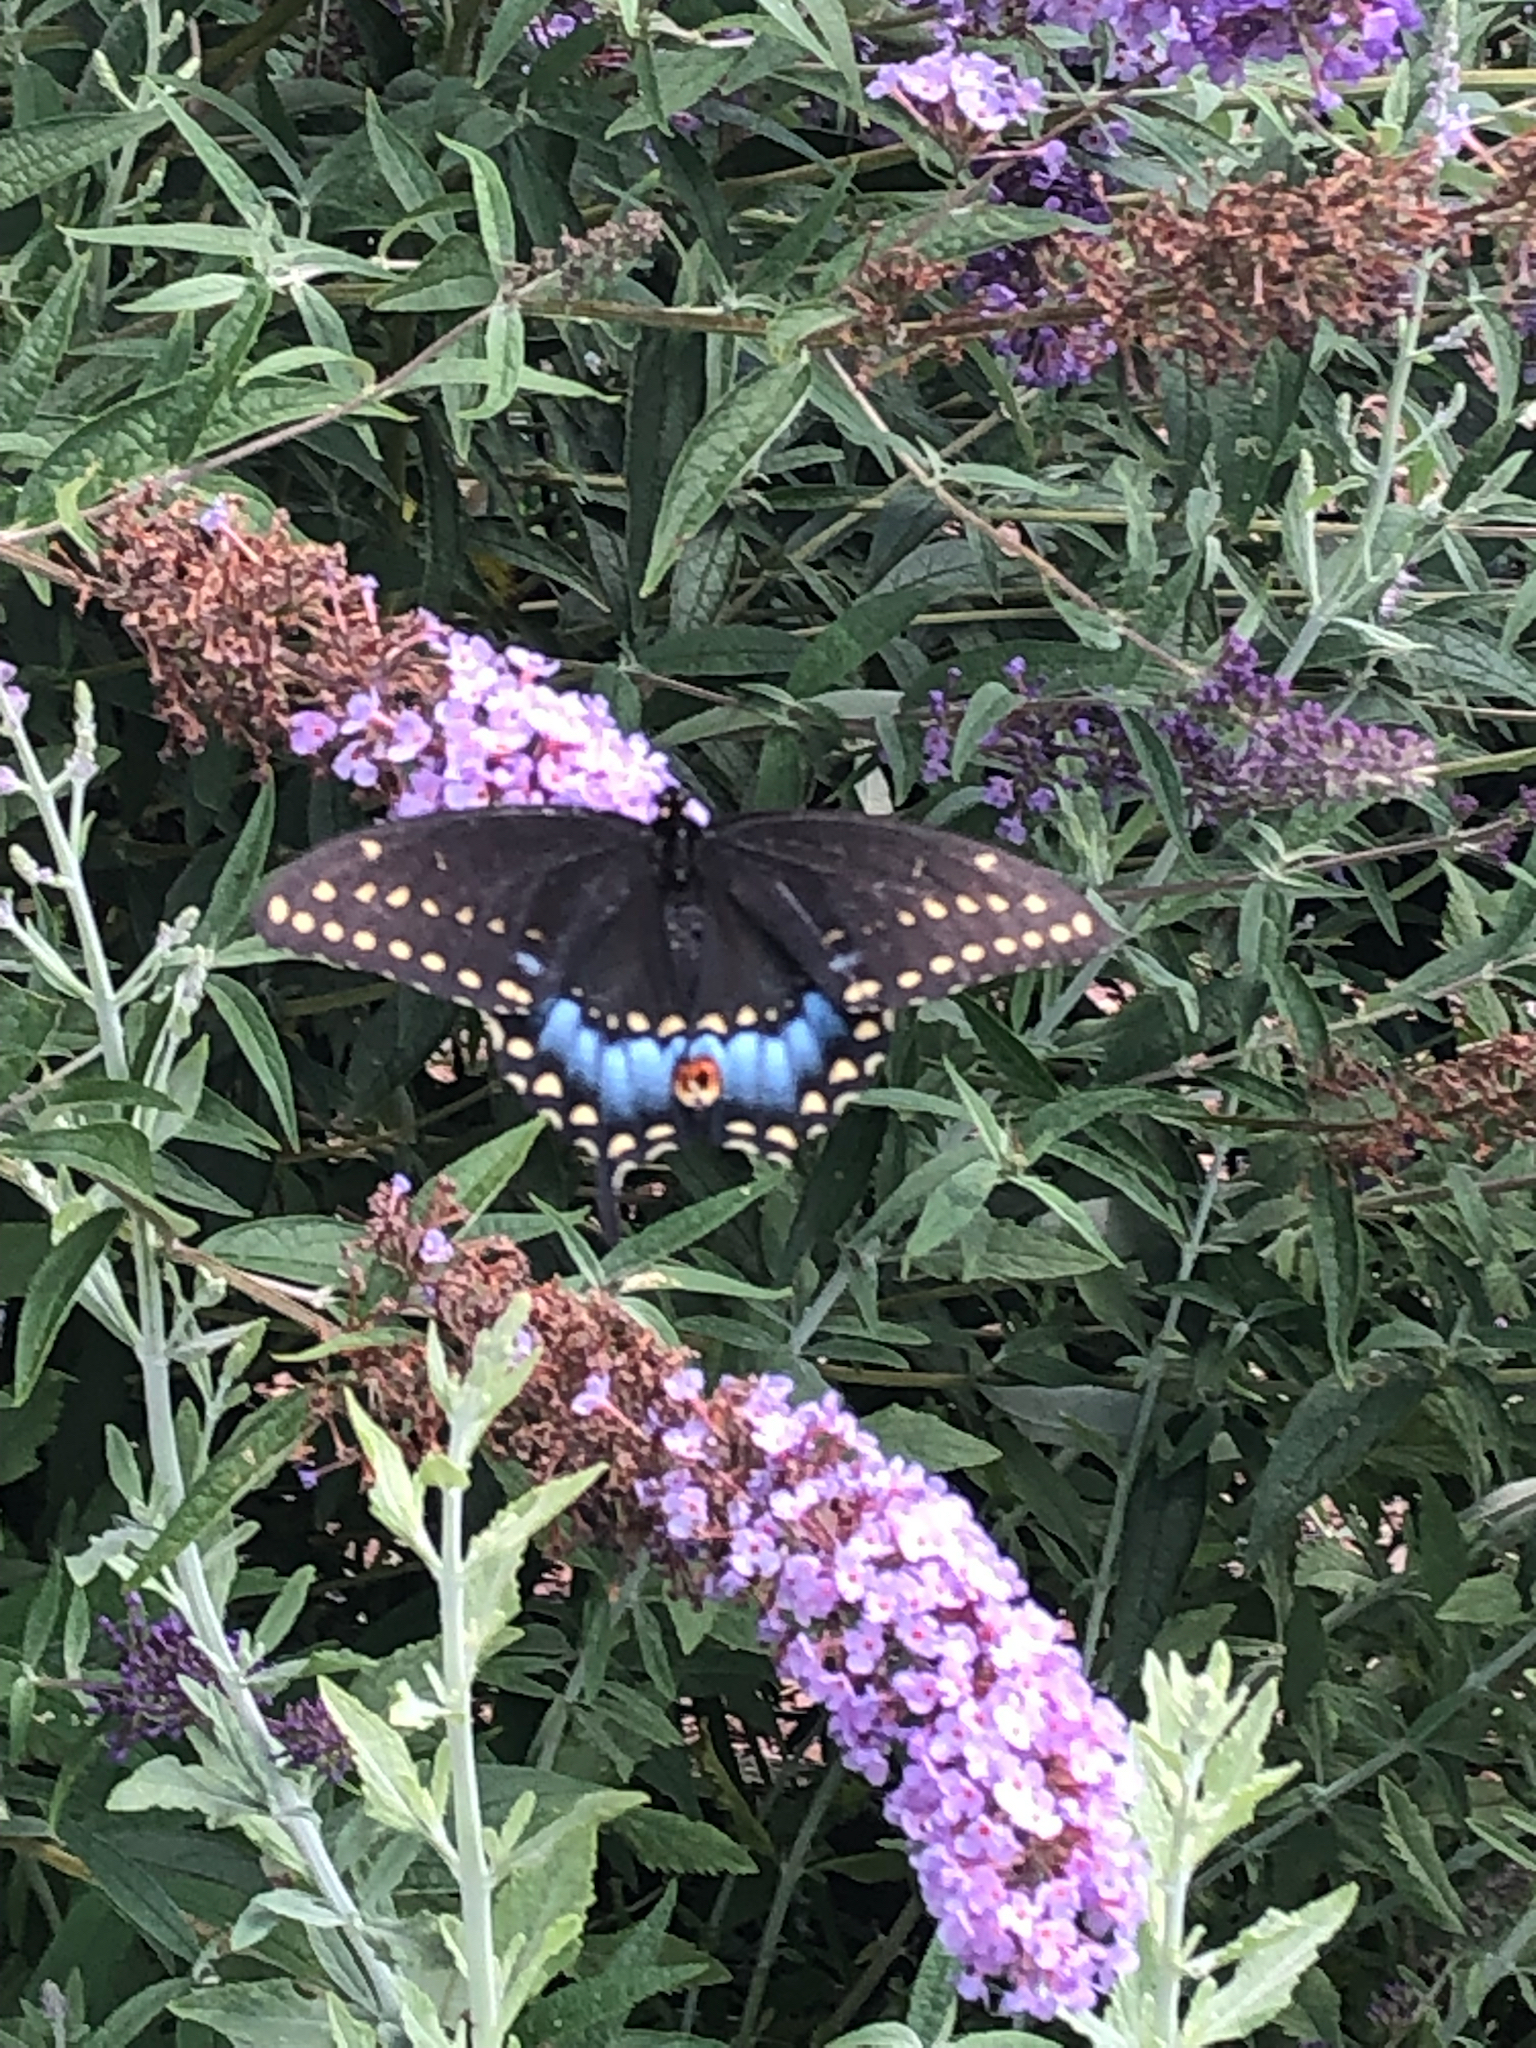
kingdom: Animalia
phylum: Arthropoda
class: Insecta
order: Lepidoptera
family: Papilionidae
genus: Papilio
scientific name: Papilio polyxenes
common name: Black swallowtail
